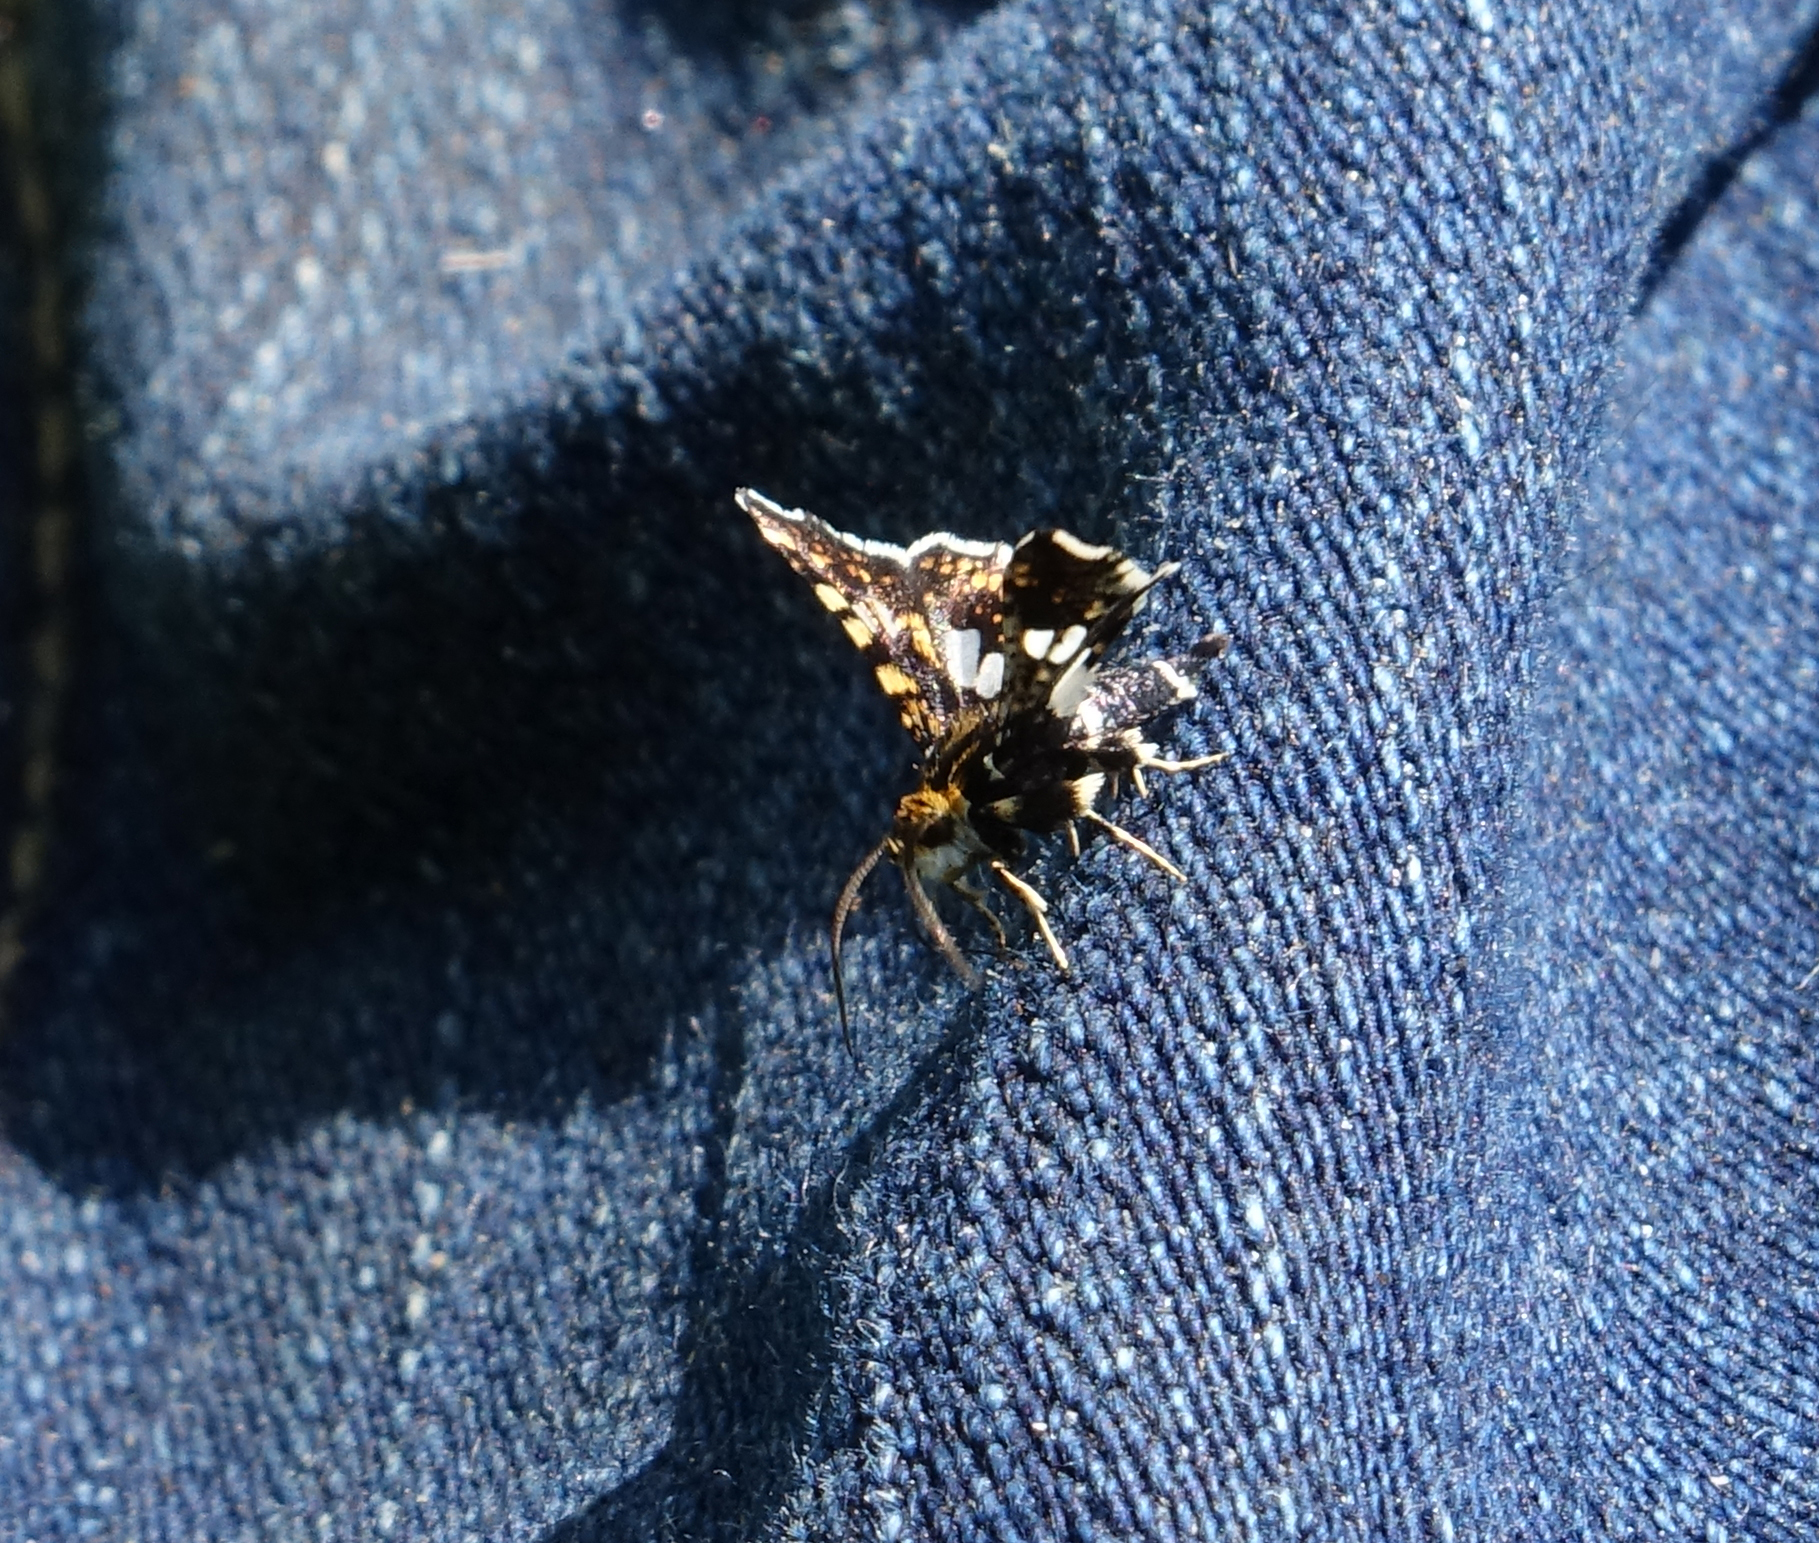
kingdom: Animalia
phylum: Arthropoda
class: Insecta
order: Lepidoptera
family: Thyrididae
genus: Thyris
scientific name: Thyris fenestrella
